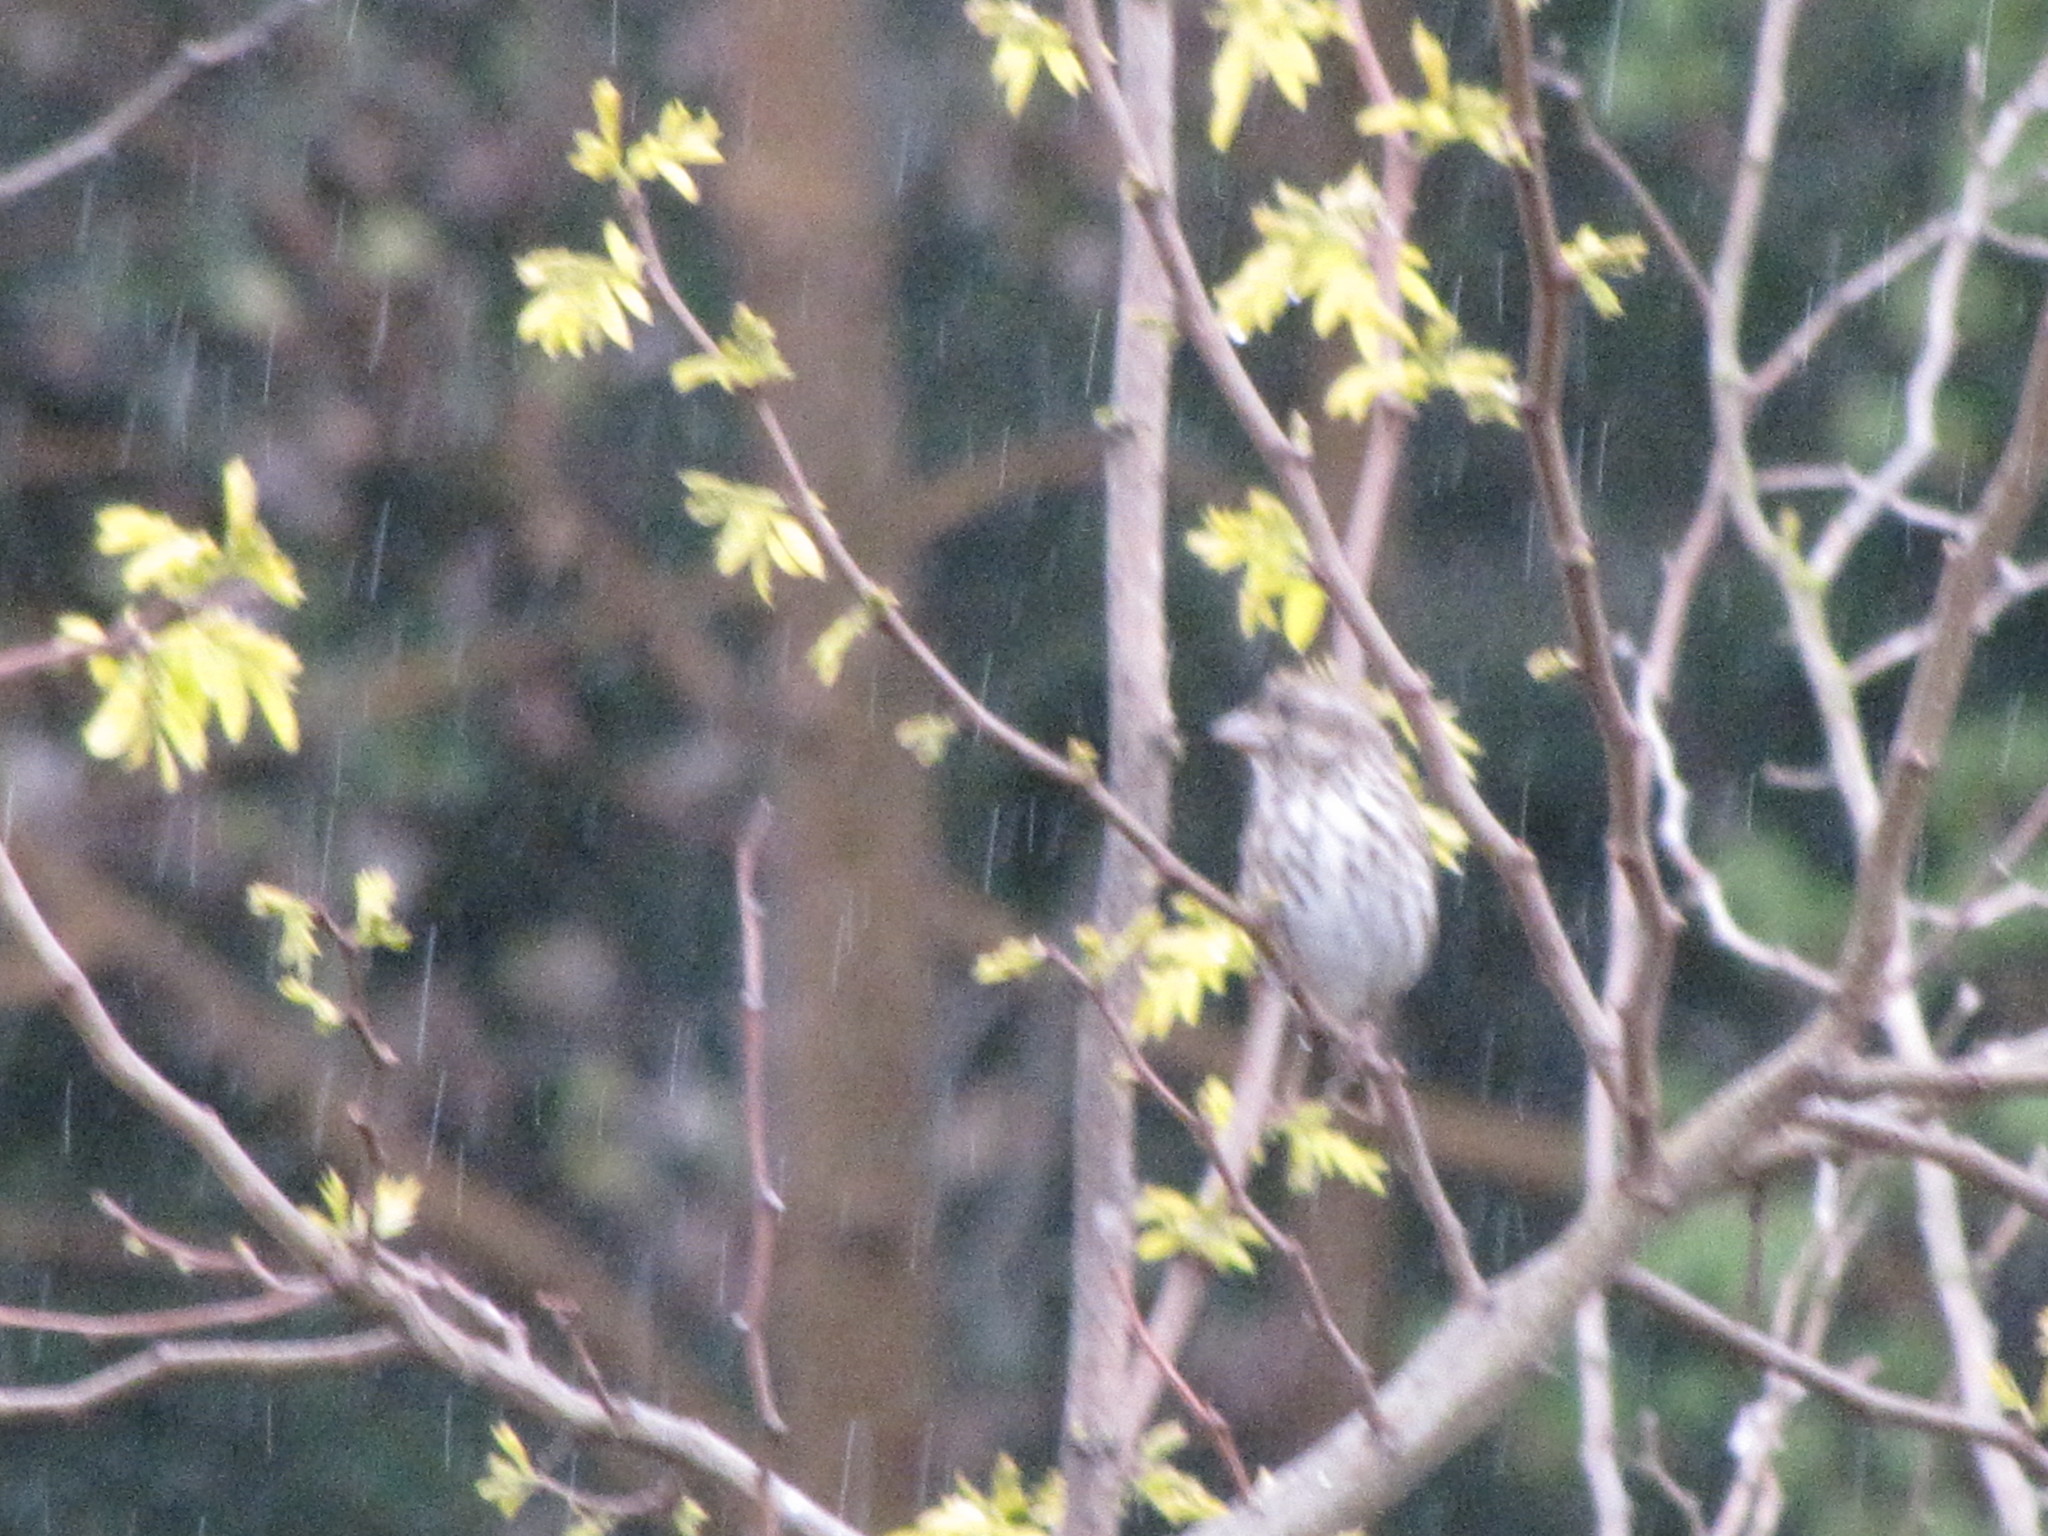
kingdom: Animalia
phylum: Chordata
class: Aves
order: Passeriformes
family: Fringillidae
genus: Haemorhous
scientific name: Haemorhous purpureus
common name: Purple finch
